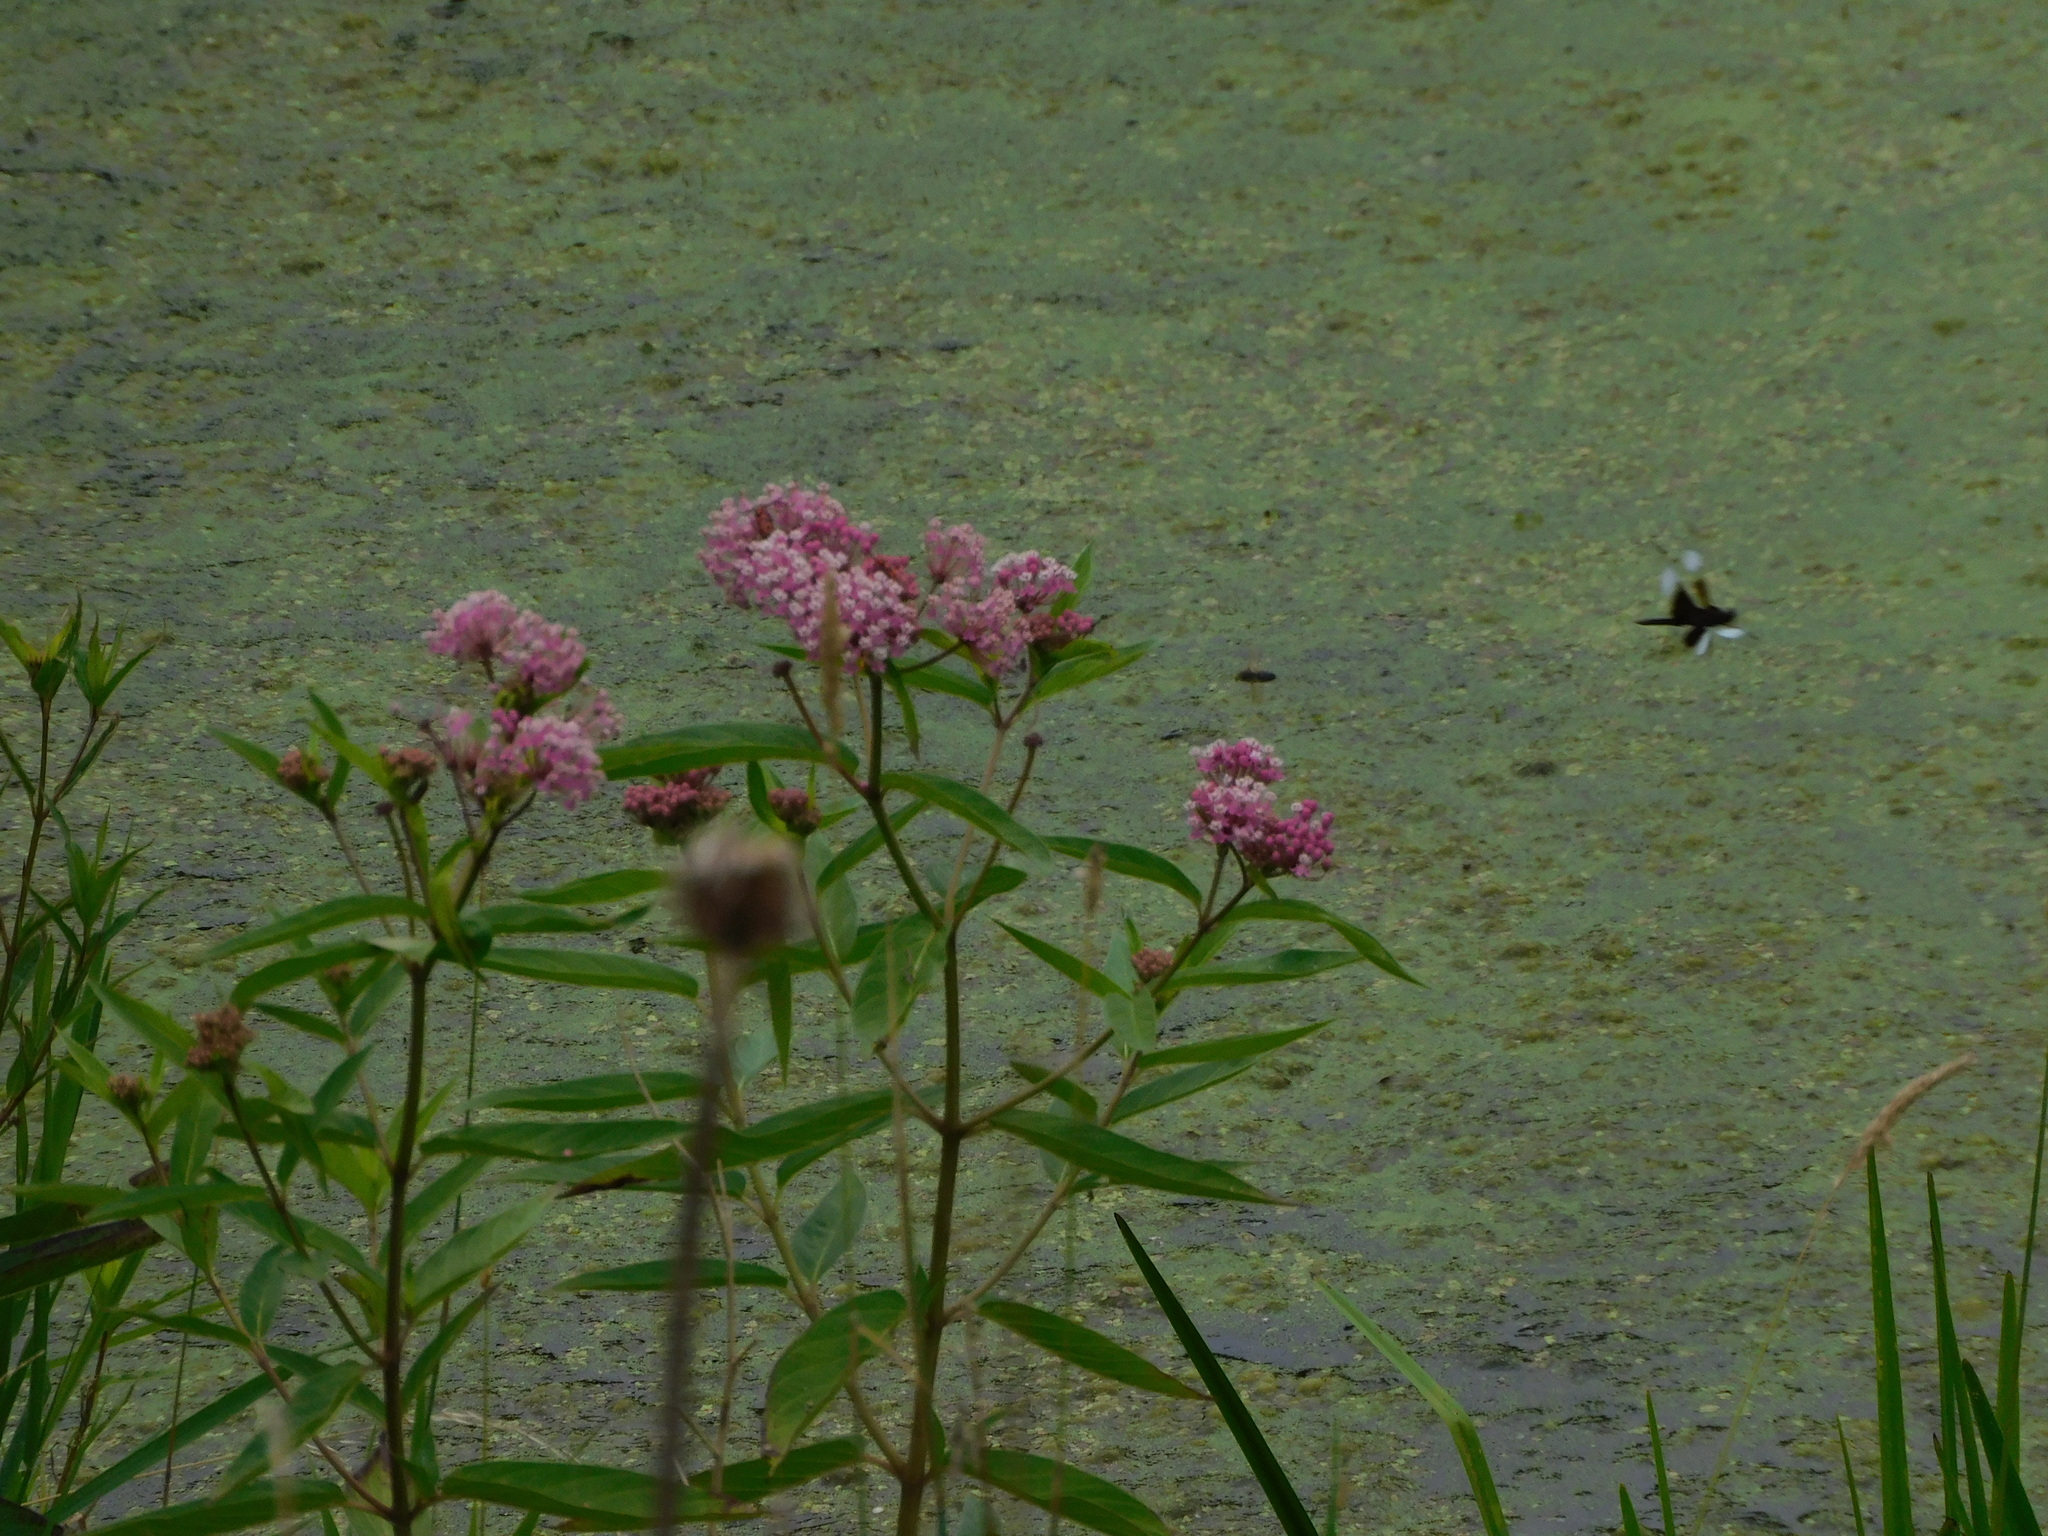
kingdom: Plantae
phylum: Tracheophyta
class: Magnoliopsida
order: Gentianales
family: Apocynaceae
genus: Asclepias
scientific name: Asclepias incarnata
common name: Swamp milkweed
